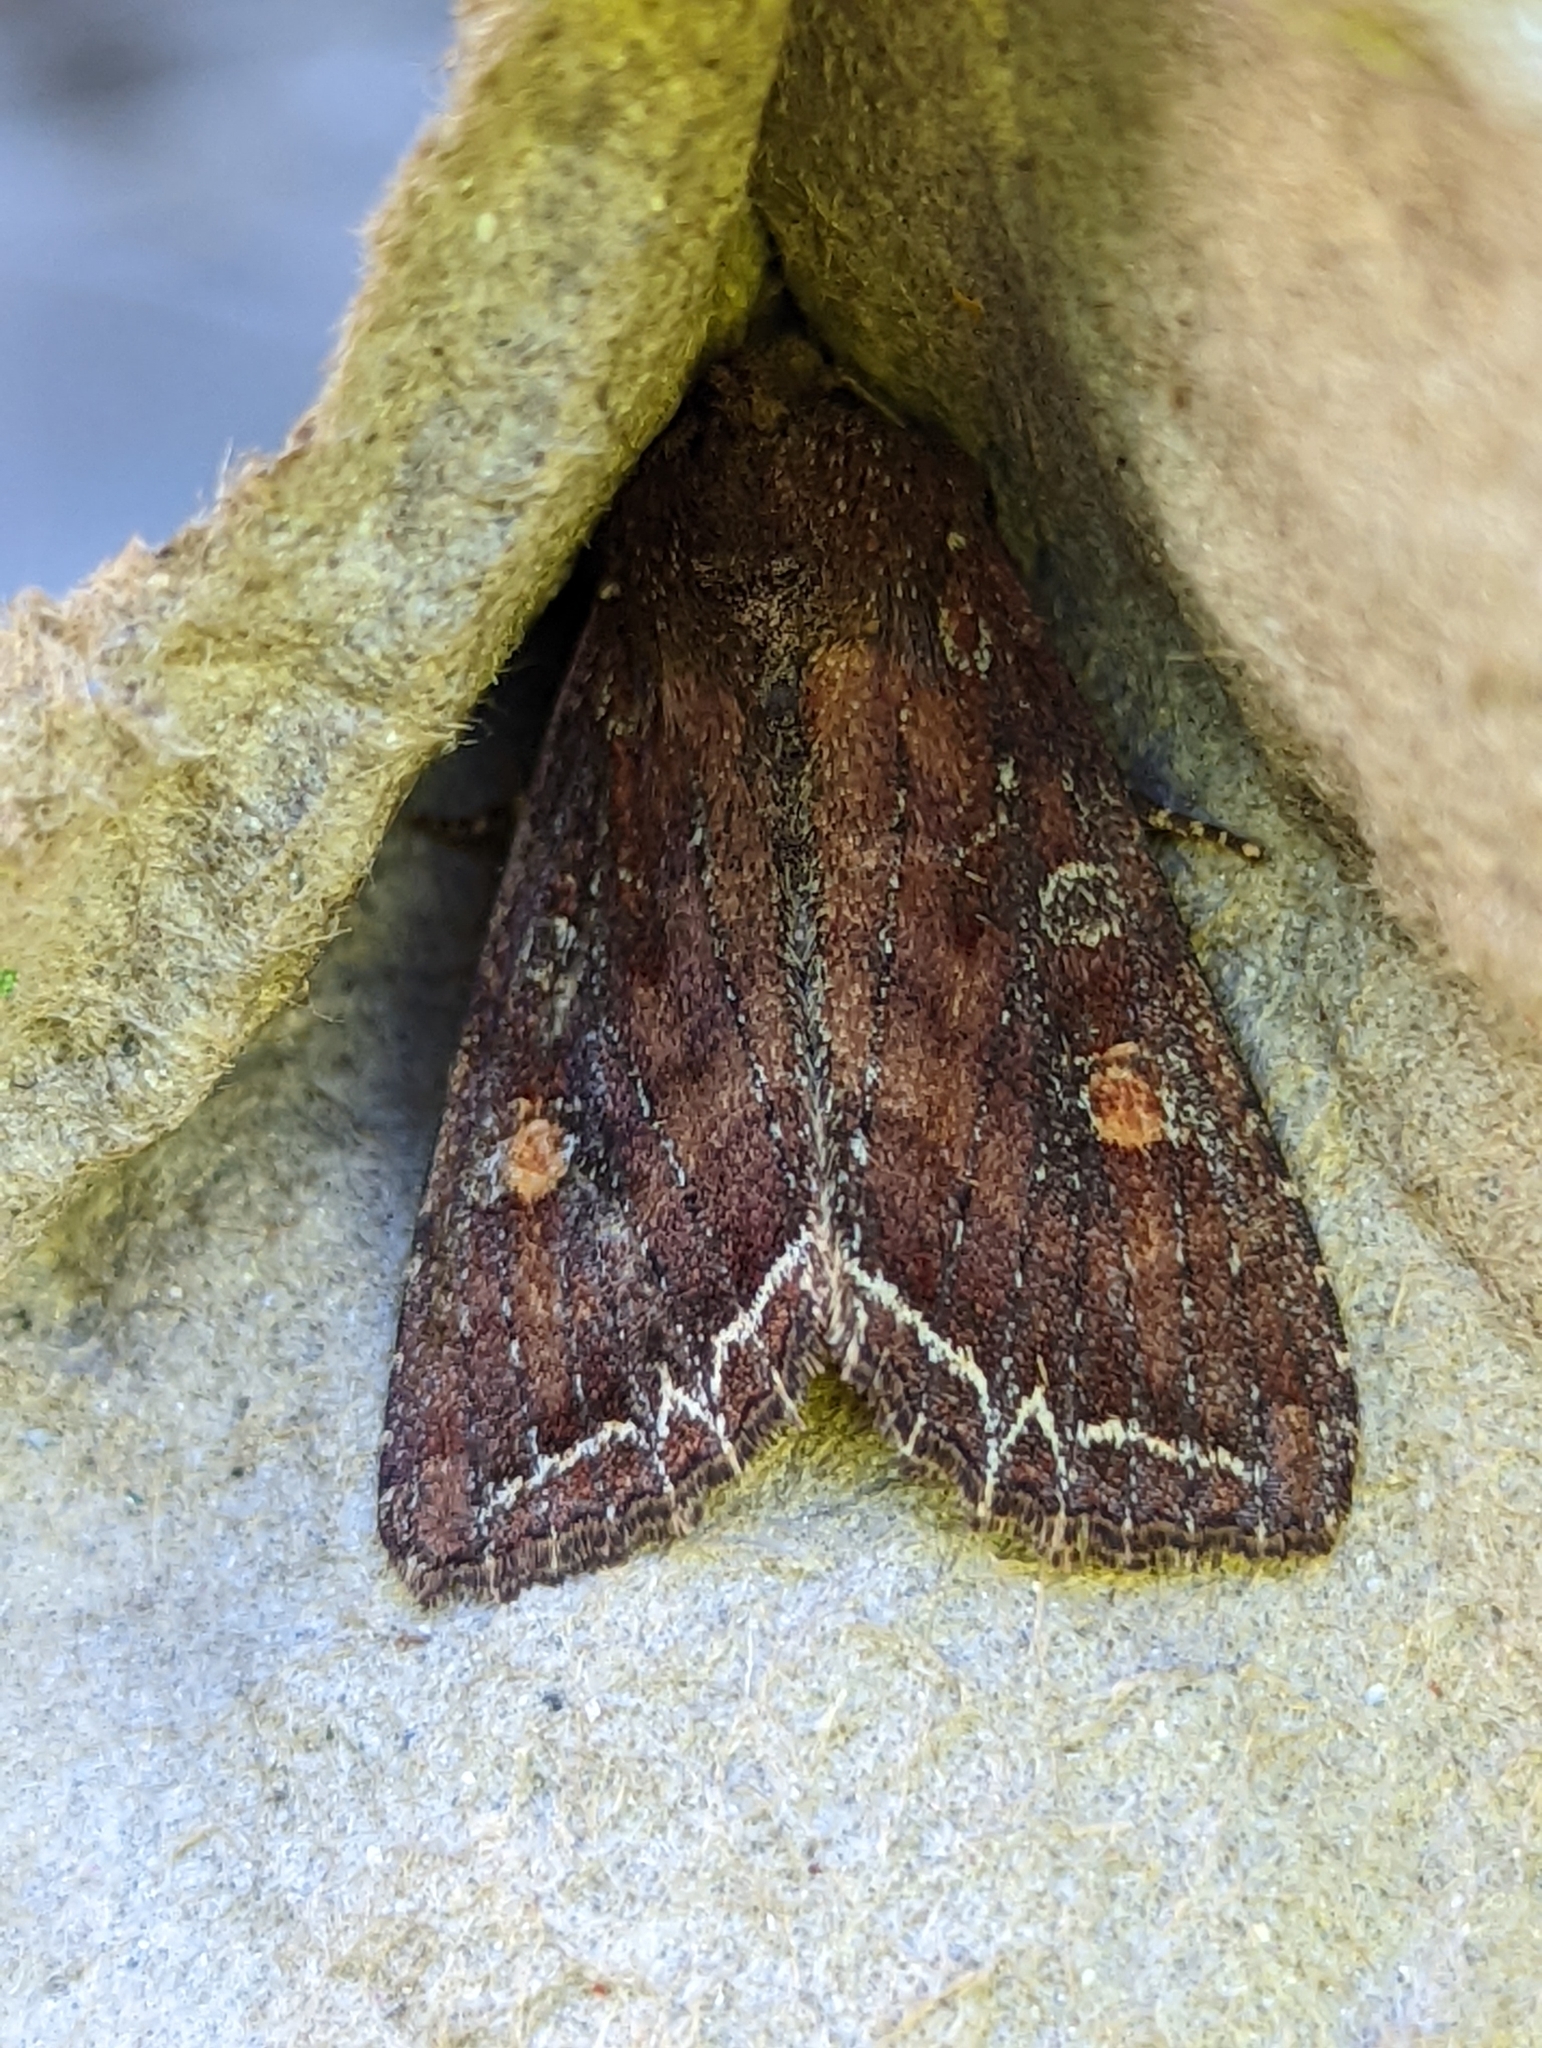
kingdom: Animalia
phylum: Arthropoda
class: Insecta
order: Lepidoptera
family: Noctuidae
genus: Lacanobia
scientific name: Lacanobia oleracea
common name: Bright-line brown-eye
